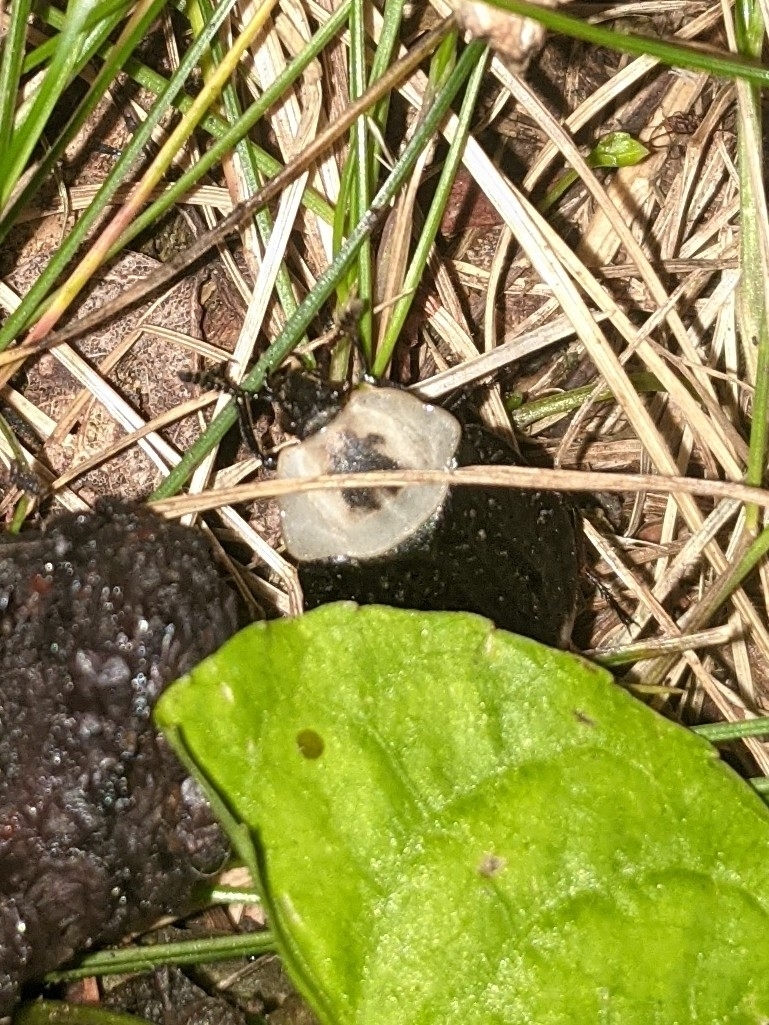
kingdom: Animalia
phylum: Arthropoda
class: Insecta
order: Coleoptera
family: Staphylinidae
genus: Necrophila
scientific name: Necrophila americana
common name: American carrion beetle
